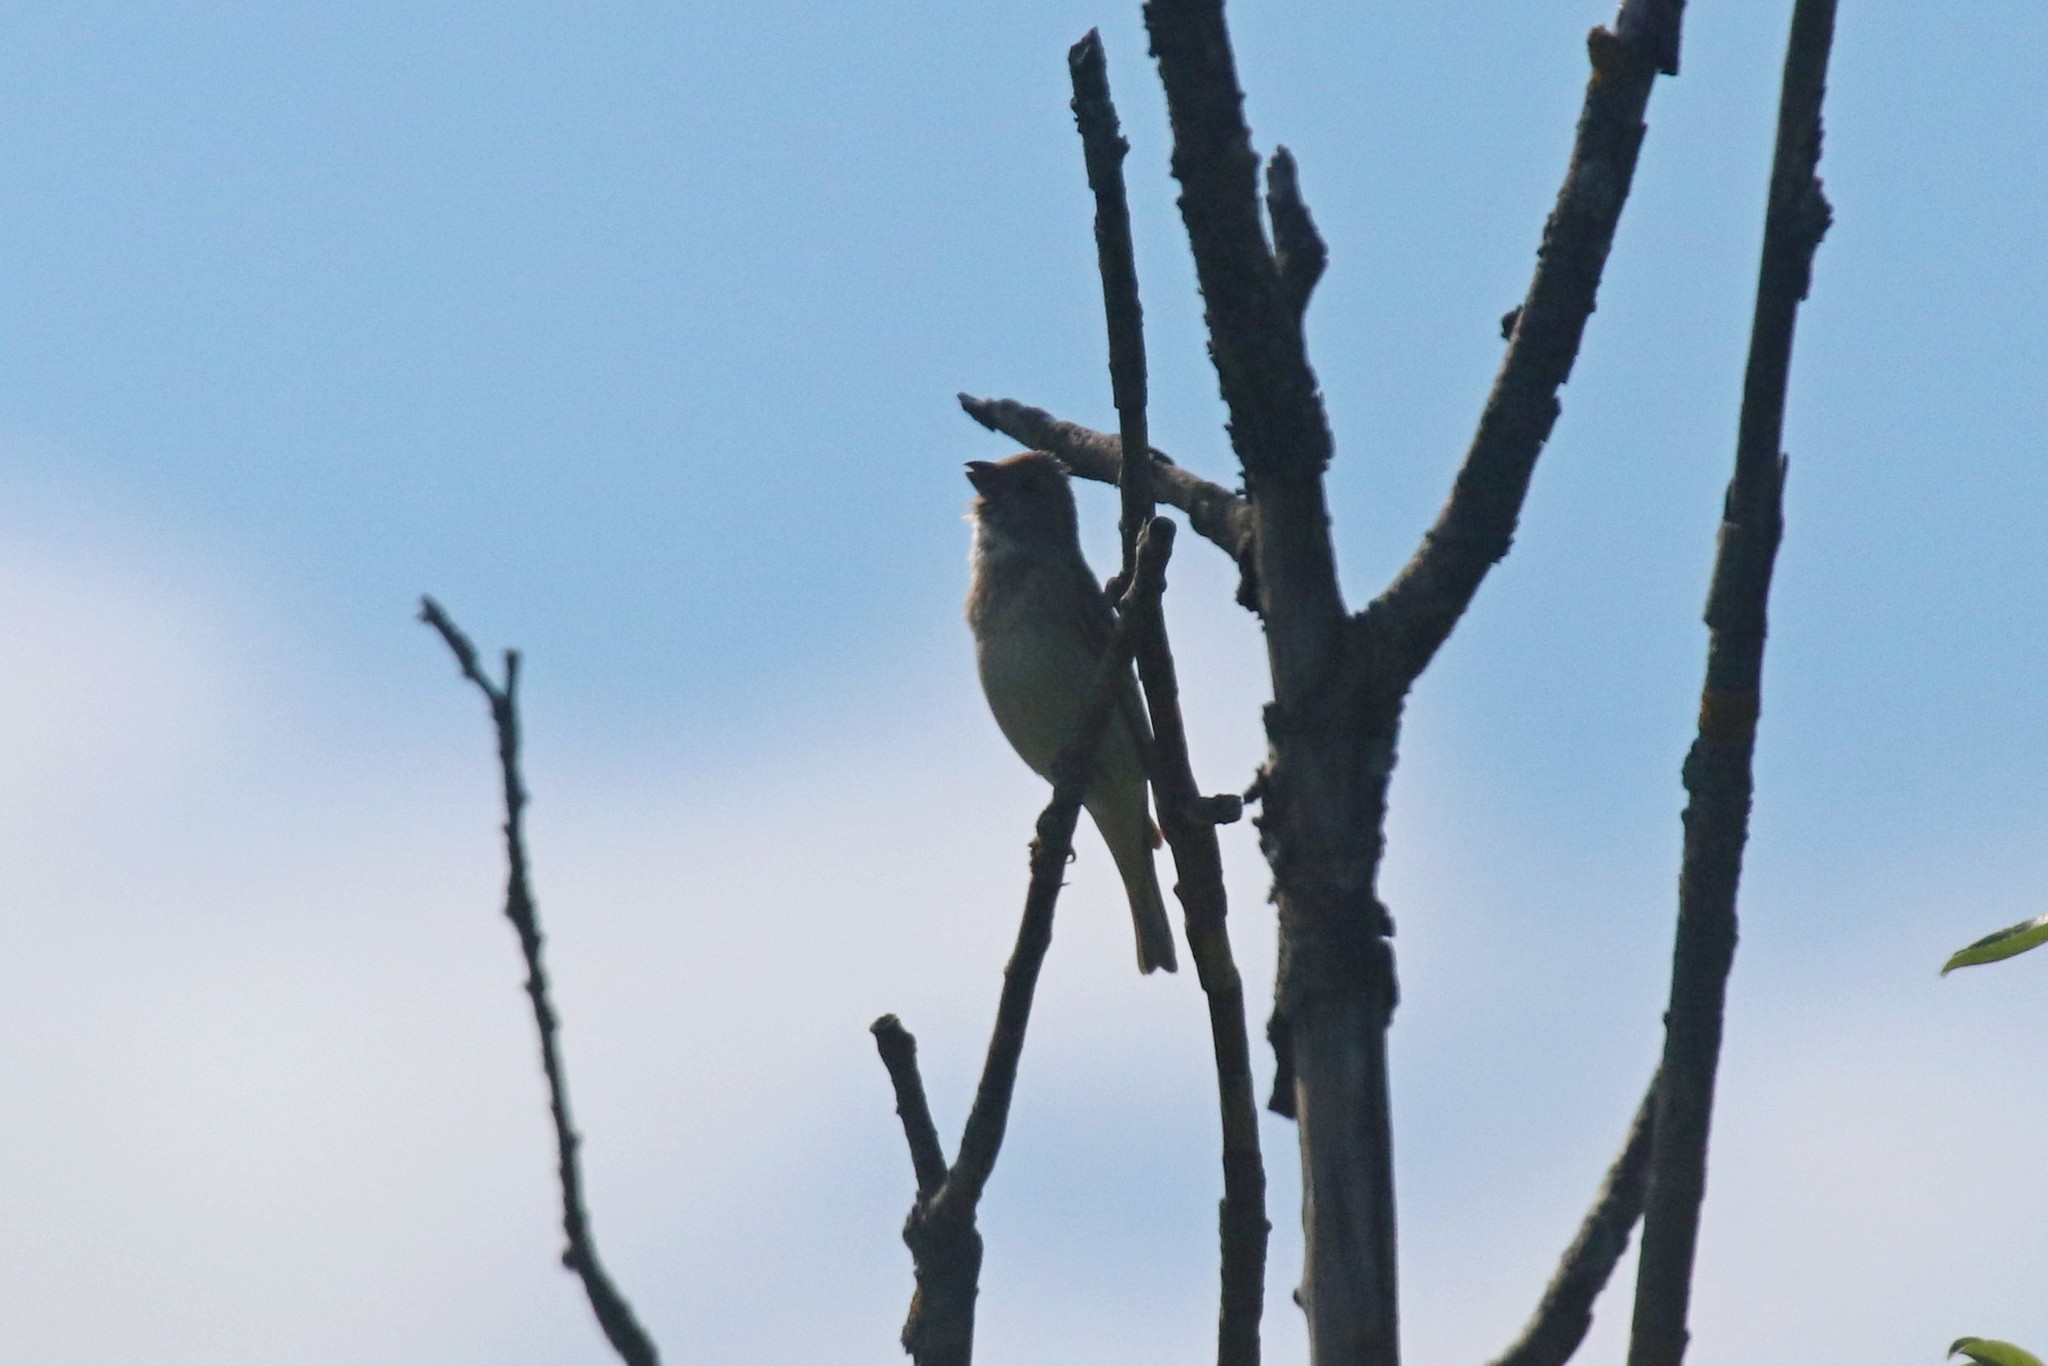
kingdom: Animalia
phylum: Chordata
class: Aves
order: Passeriformes
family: Fringillidae
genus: Carpodacus
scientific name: Carpodacus erythrinus
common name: Common rosefinch
